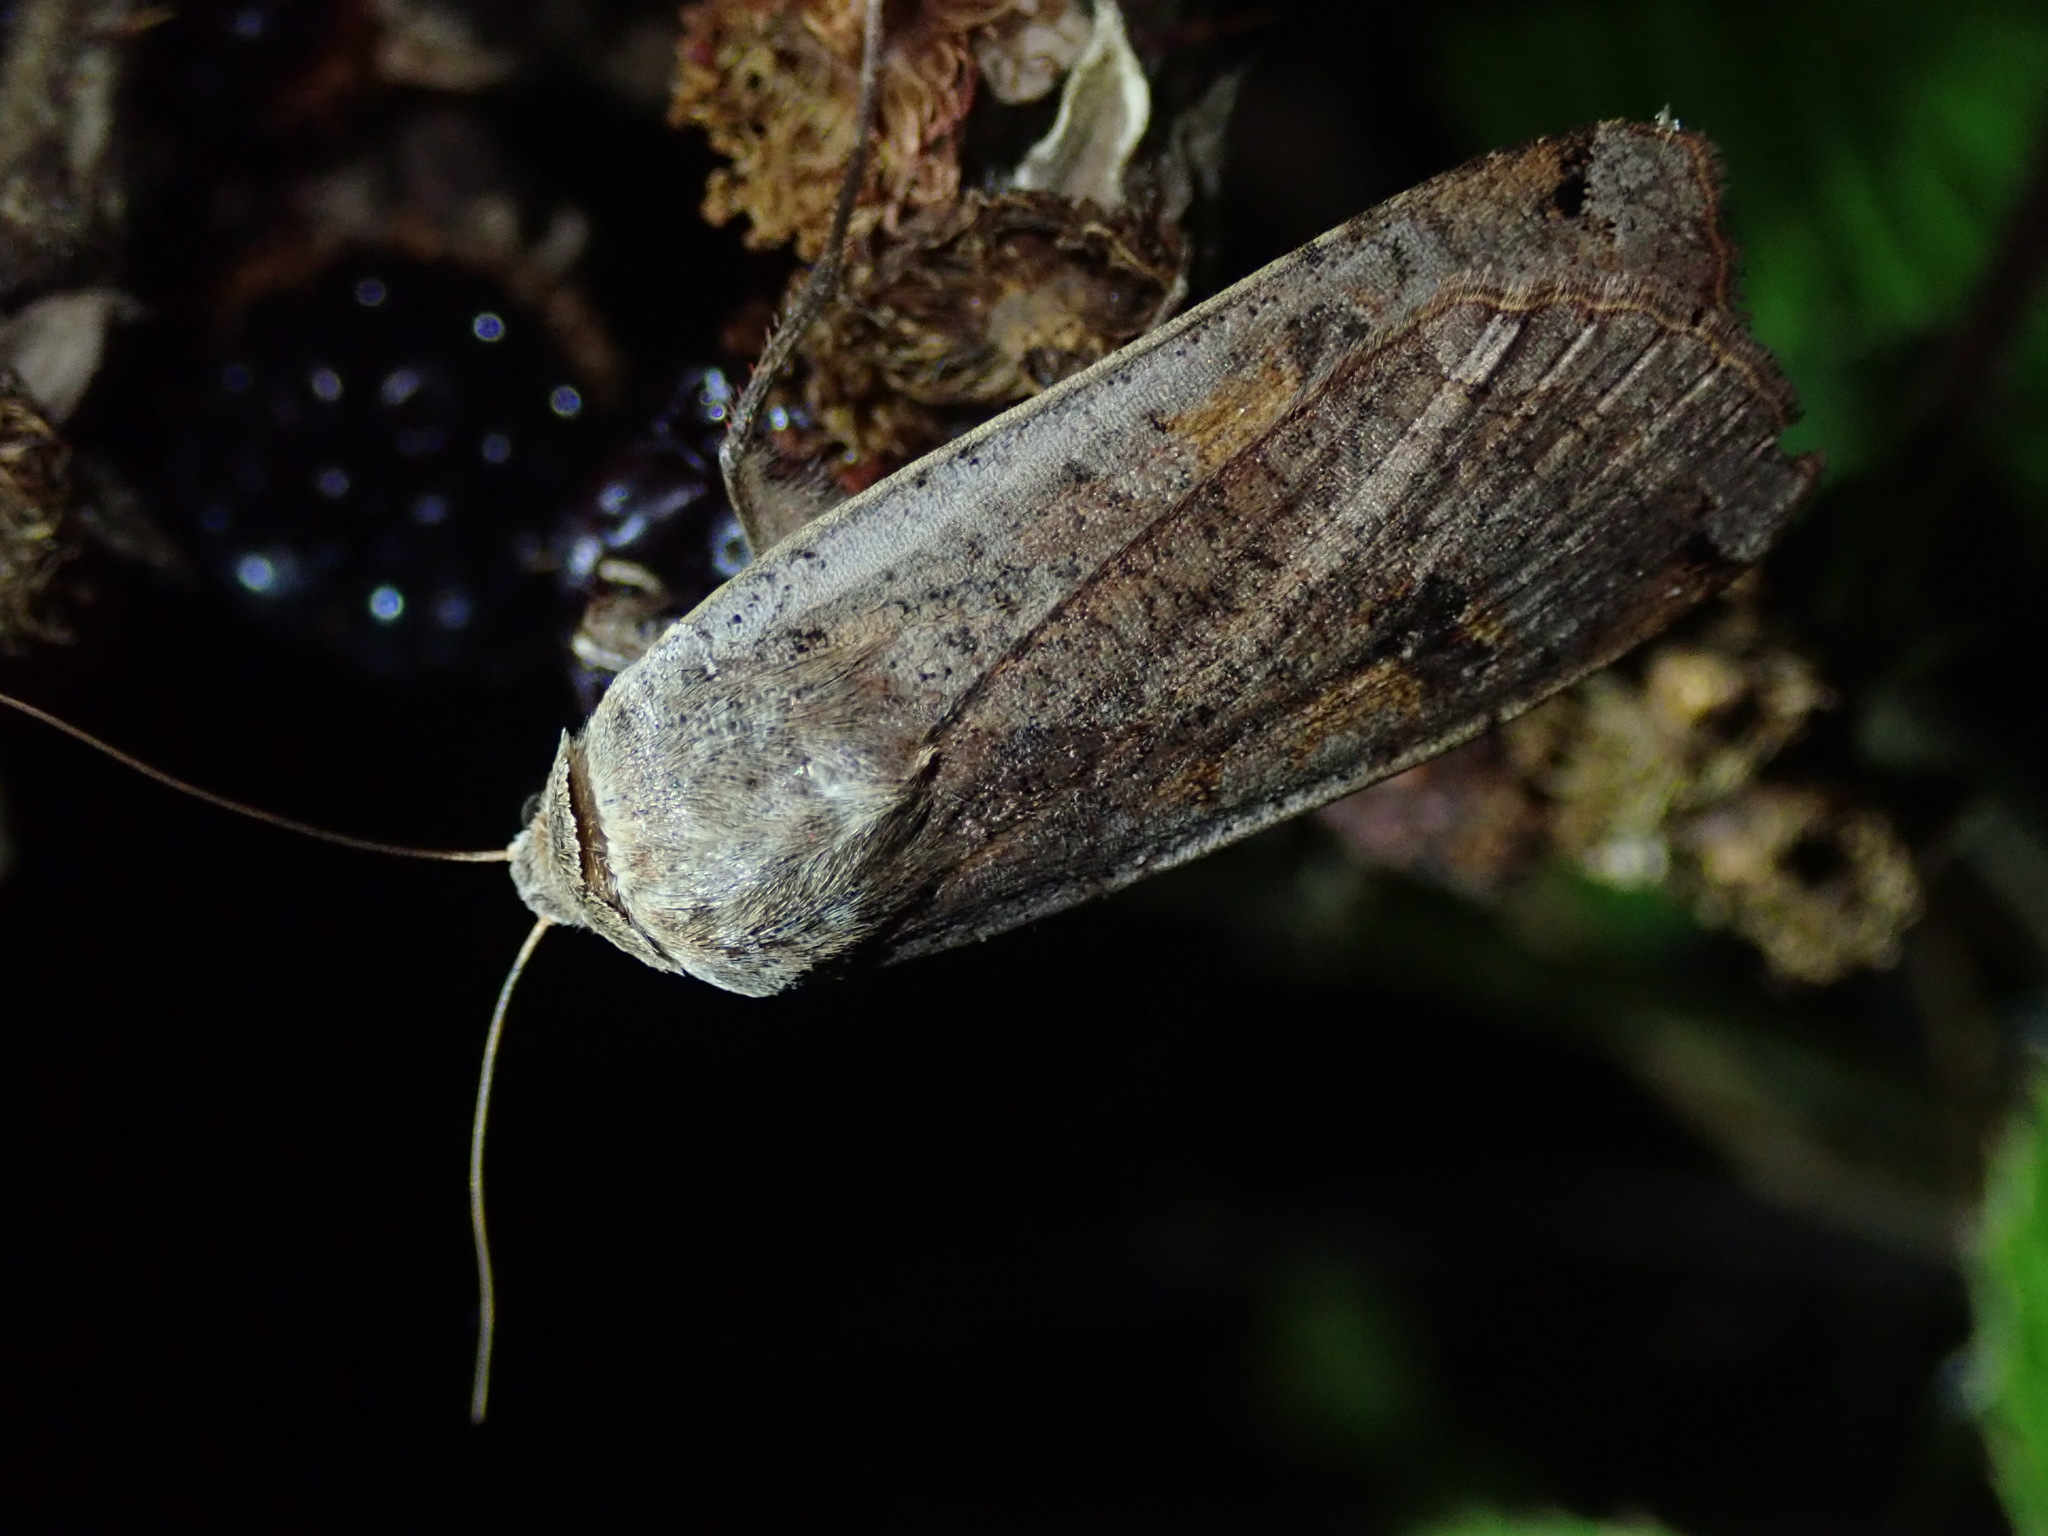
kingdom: Animalia
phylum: Arthropoda
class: Insecta
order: Lepidoptera
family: Noctuidae
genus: Noctua
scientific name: Noctua pronuba
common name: Large yellow underwing
